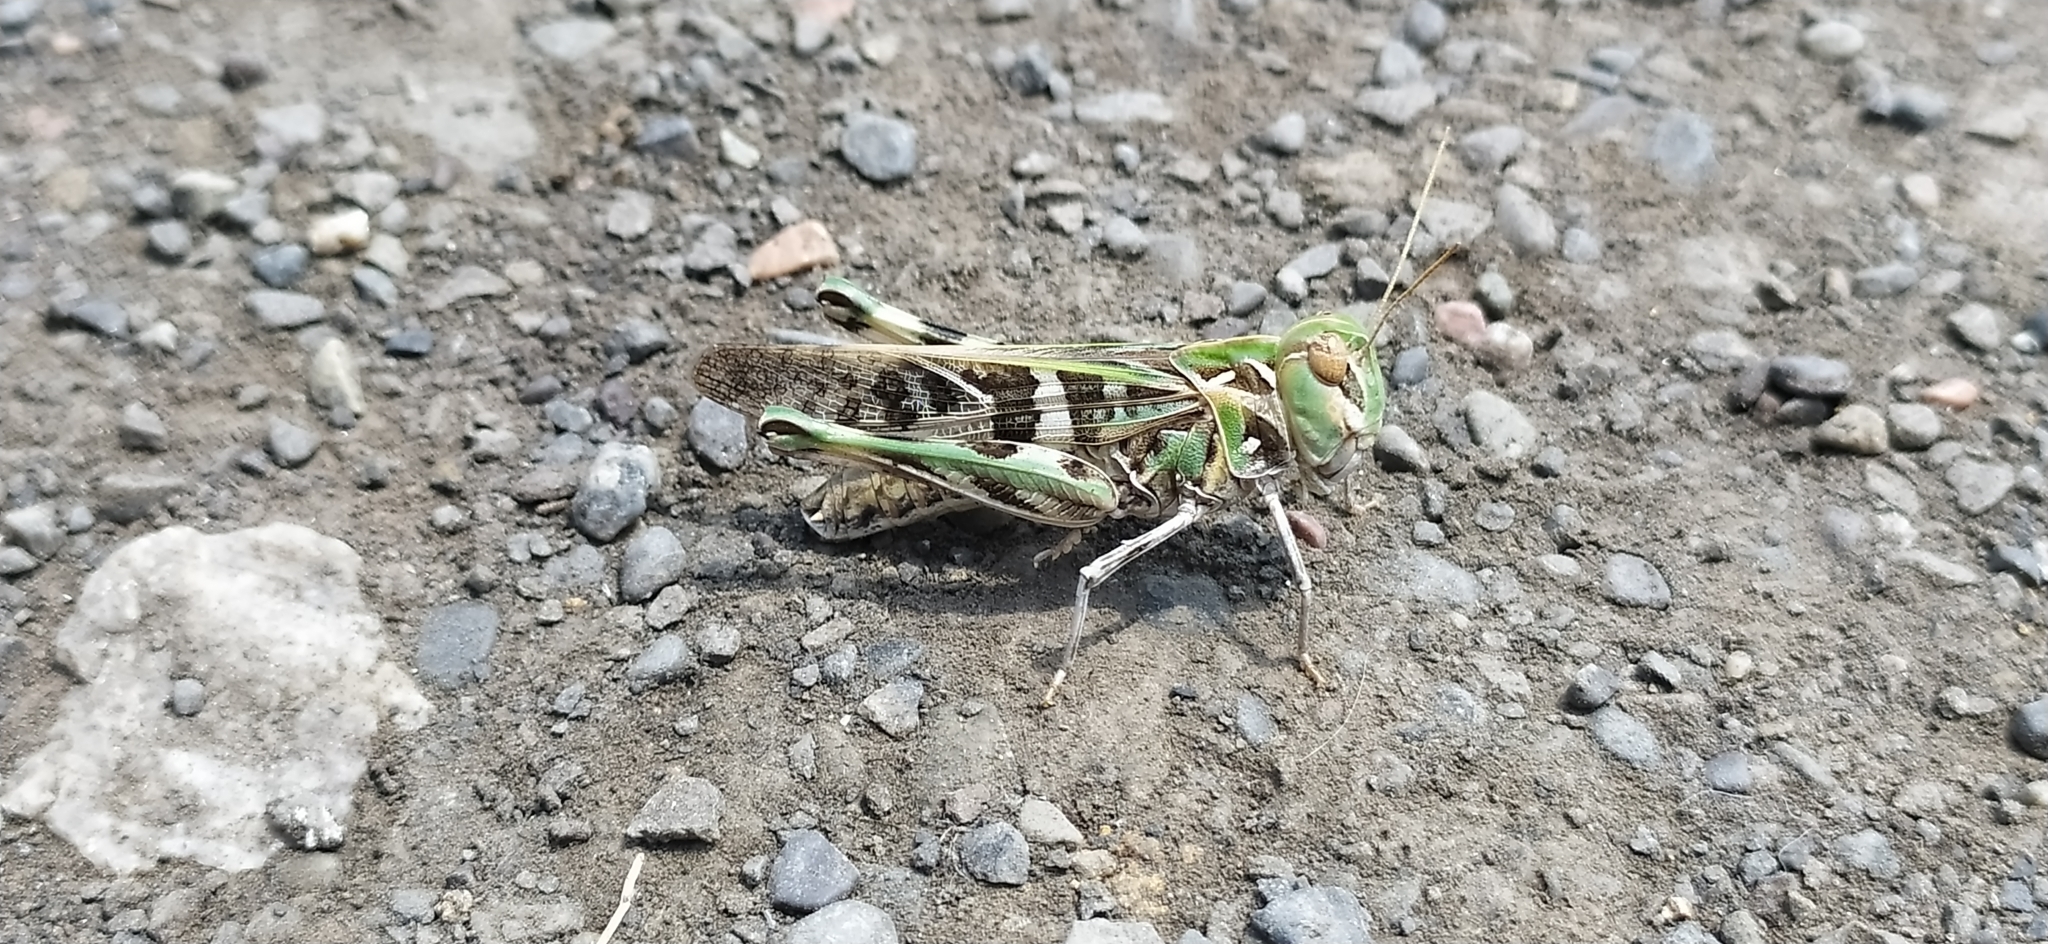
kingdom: Animalia
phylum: Arthropoda
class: Insecta
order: Orthoptera
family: Acrididae
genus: Oedaleus
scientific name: Oedaleus decorus
